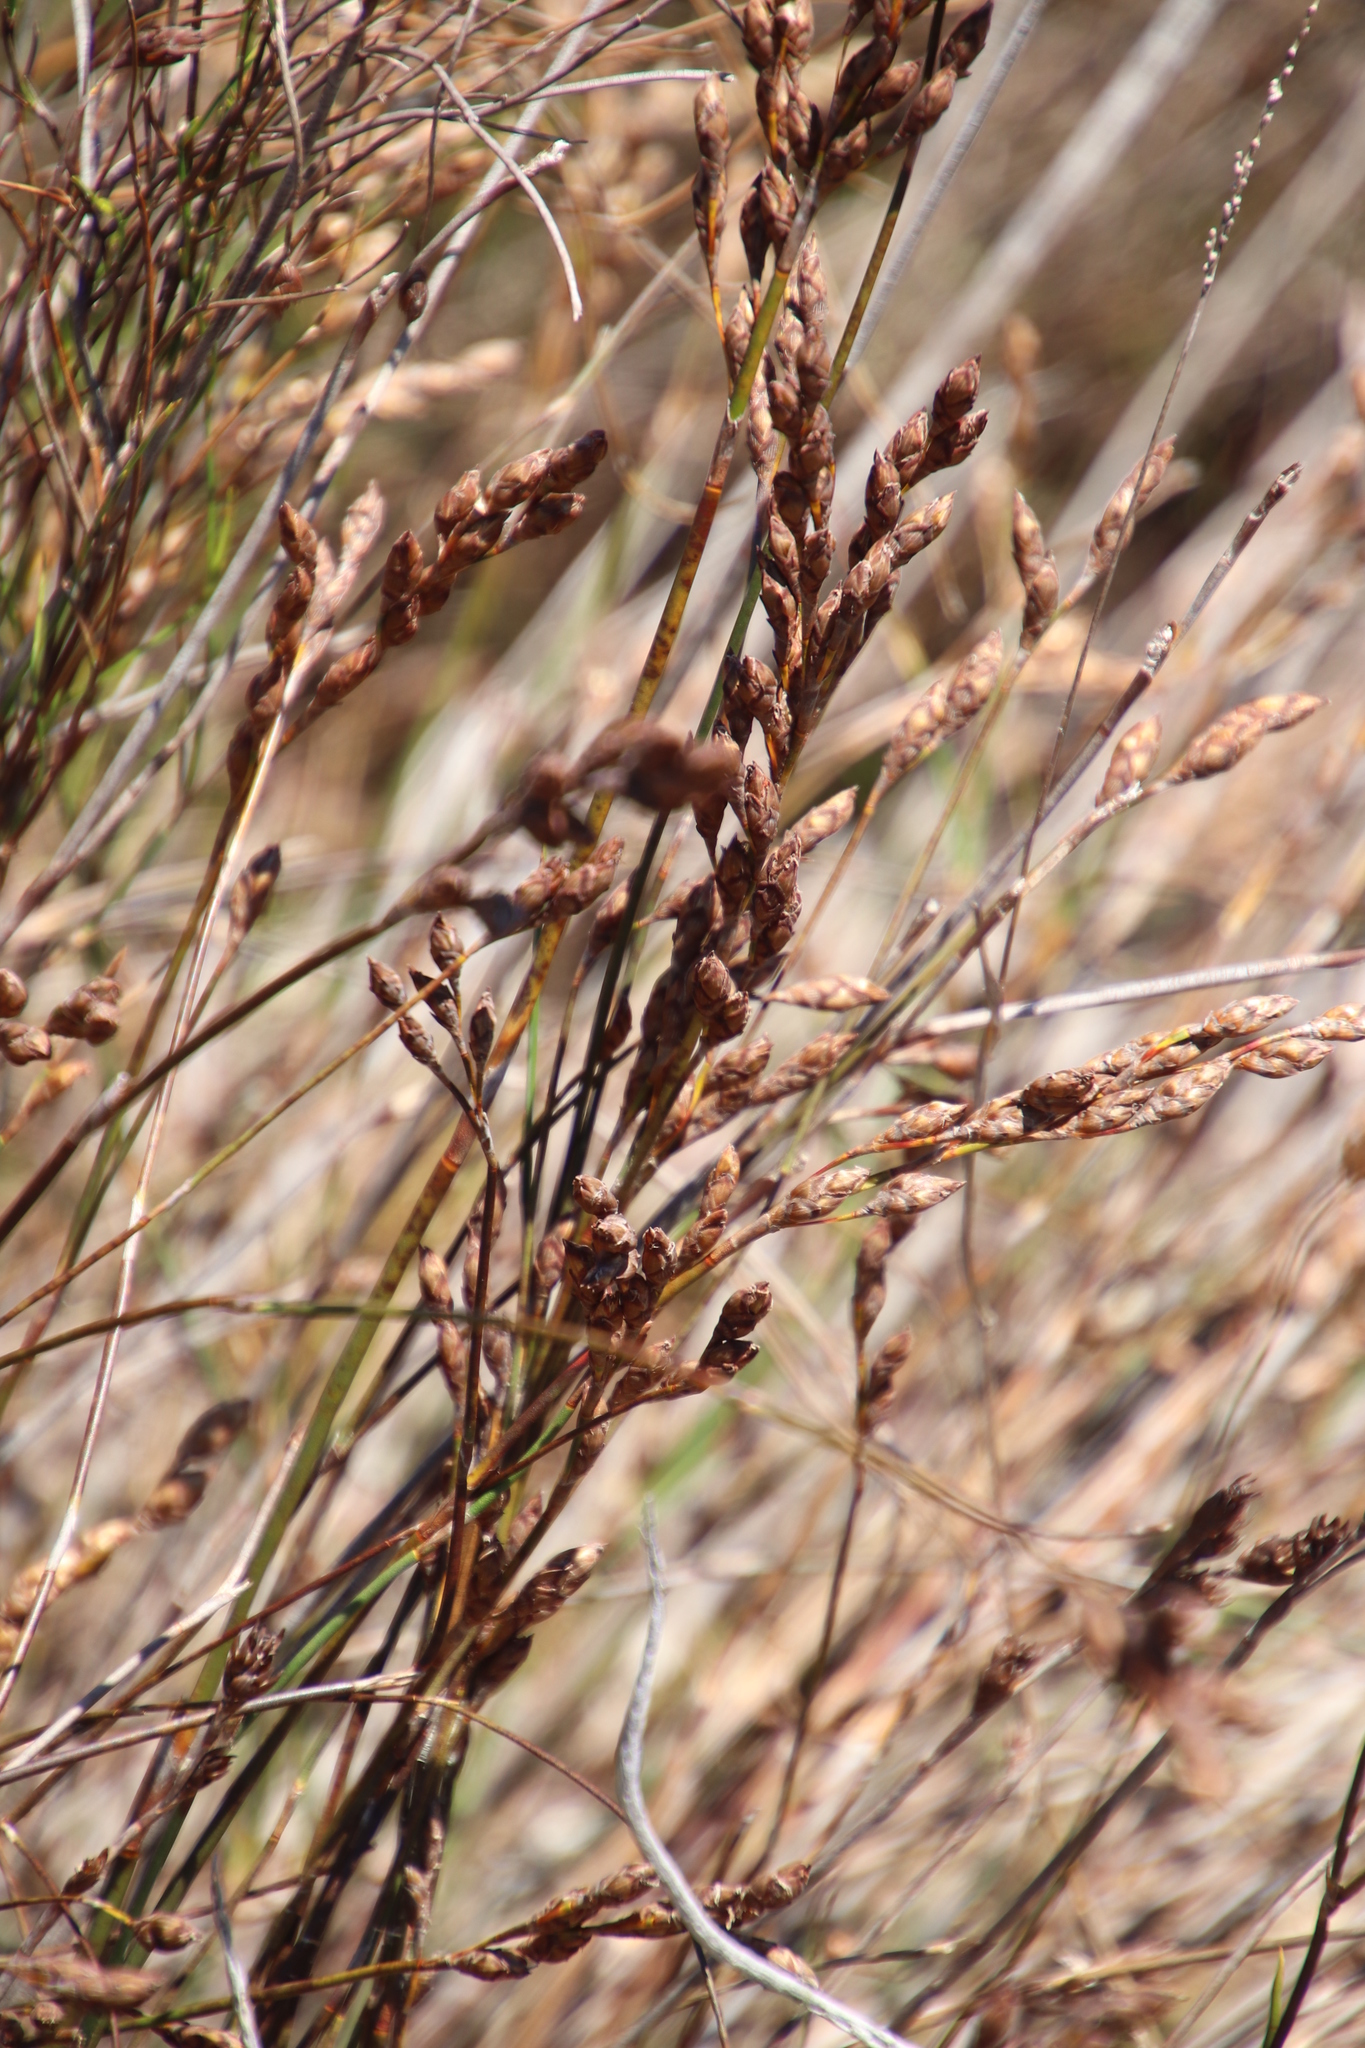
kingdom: Plantae
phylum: Tracheophyta
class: Liliopsida
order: Poales
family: Restionaceae
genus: Restio
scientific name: Restio bifurcus
